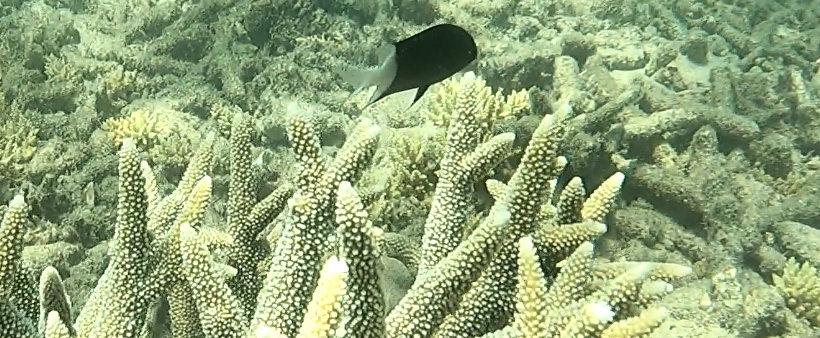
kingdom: Animalia
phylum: Chordata
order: Perciformes
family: Pomacentridae
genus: Acanthochromis
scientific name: Acanthochromis polyacanthus
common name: Spiny chromis
